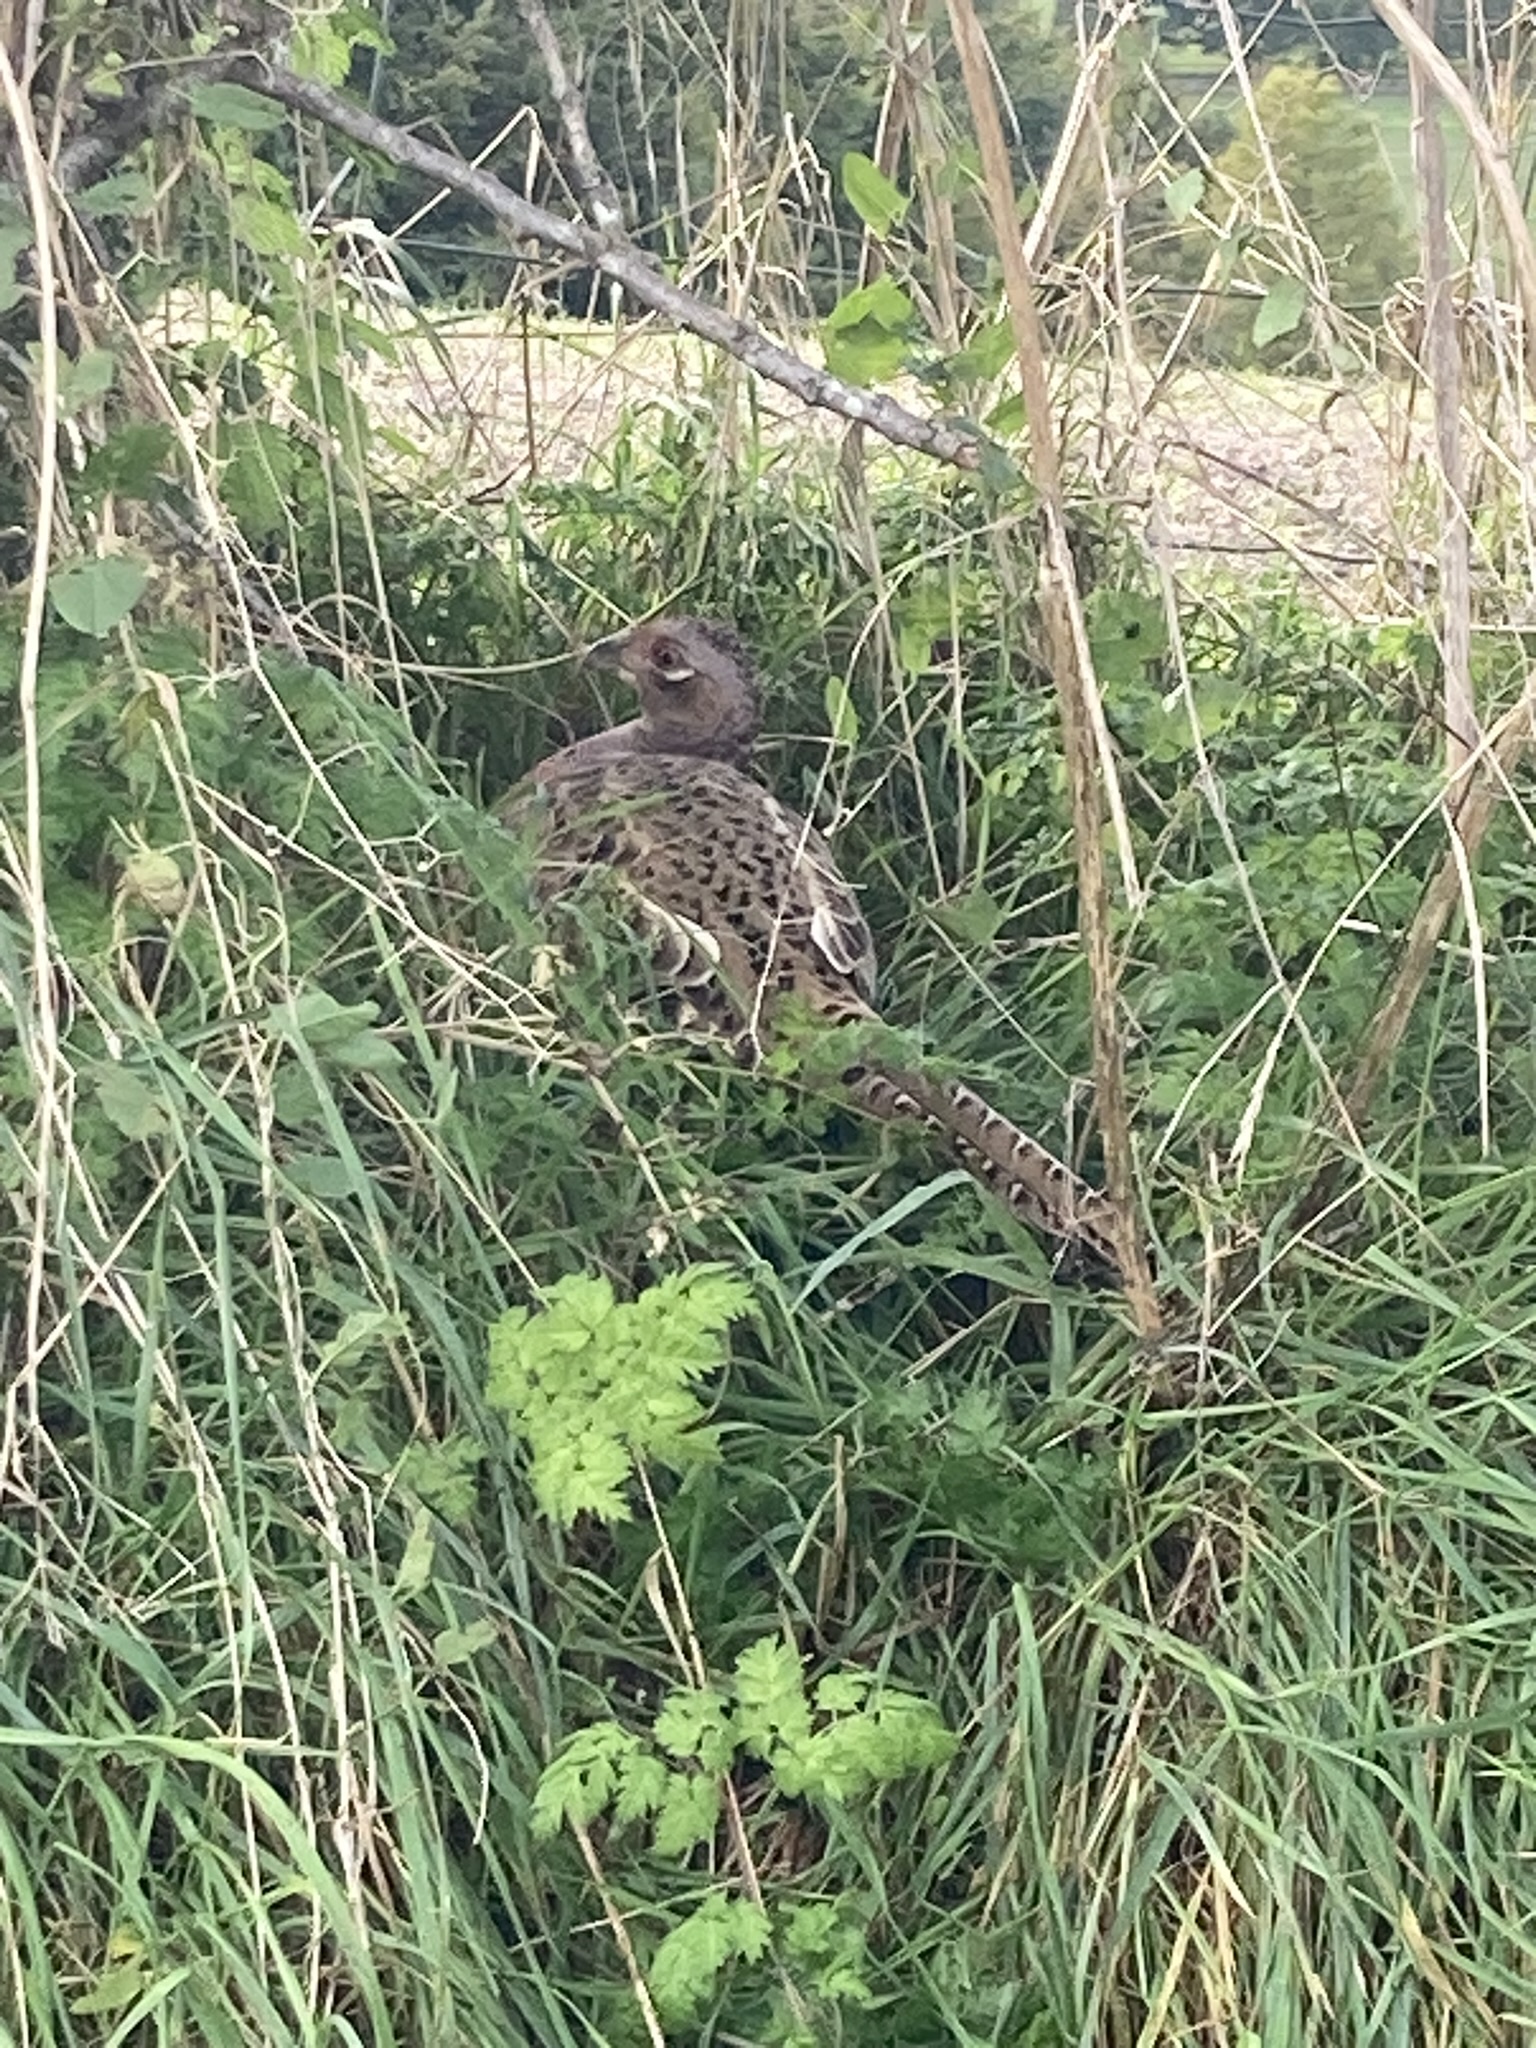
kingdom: Animalia
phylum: Chordata
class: Aves
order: Galliformes
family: Phasianidae
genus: Phasianus
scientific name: Phasianus colchicus
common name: Common pheasant
